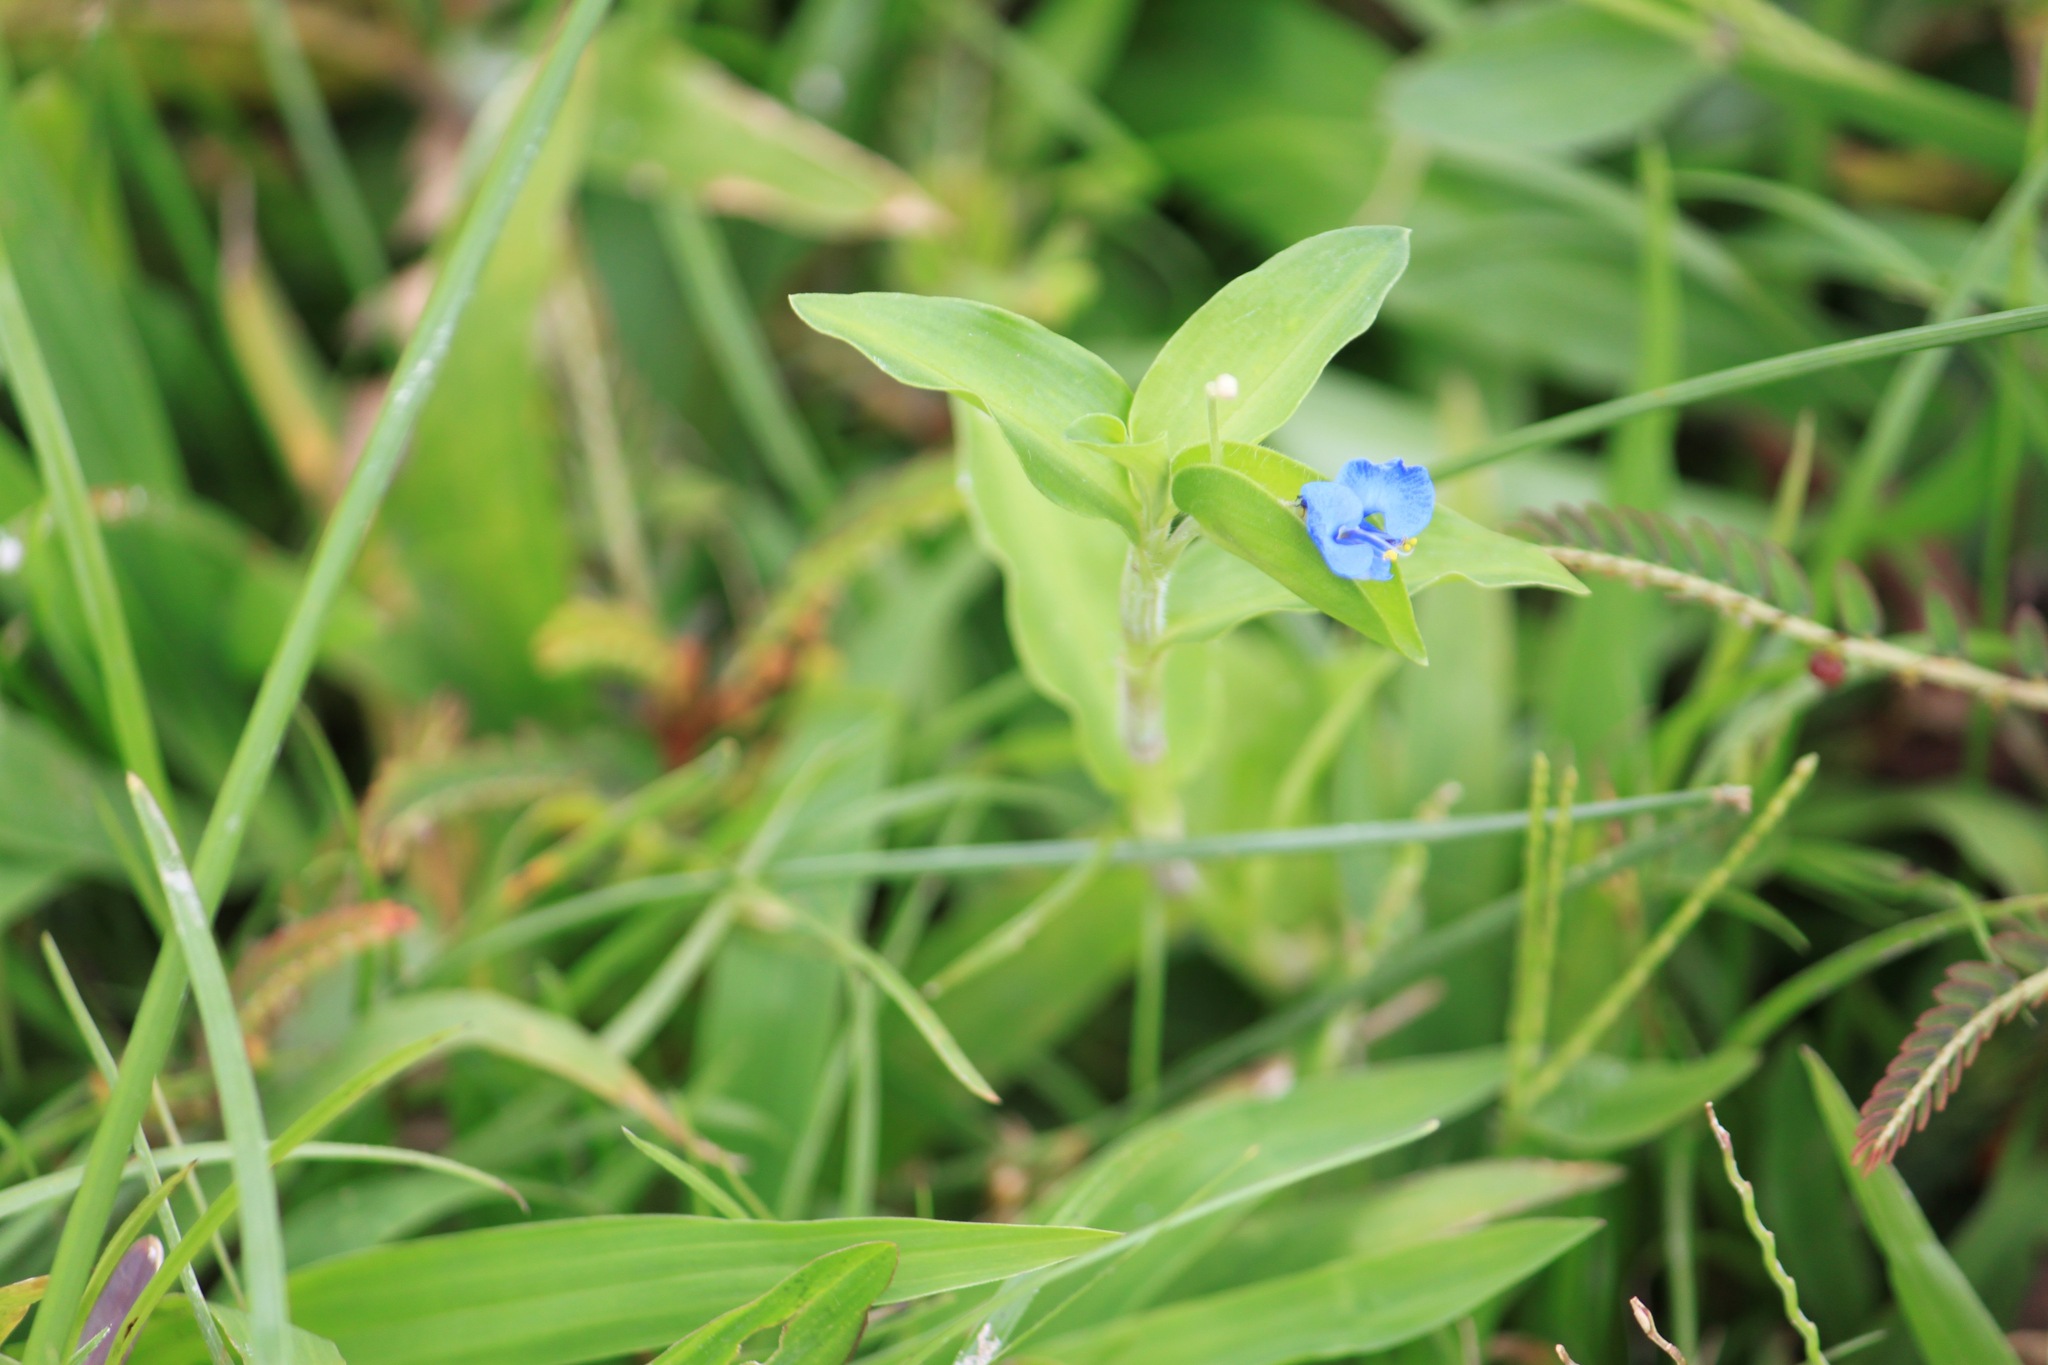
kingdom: Plantae
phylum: Tracheophyta
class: Liliopsida
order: Commelinales
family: Commelinaceae
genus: Commelina
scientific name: Commelina diffusa
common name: Climbing dayflower
